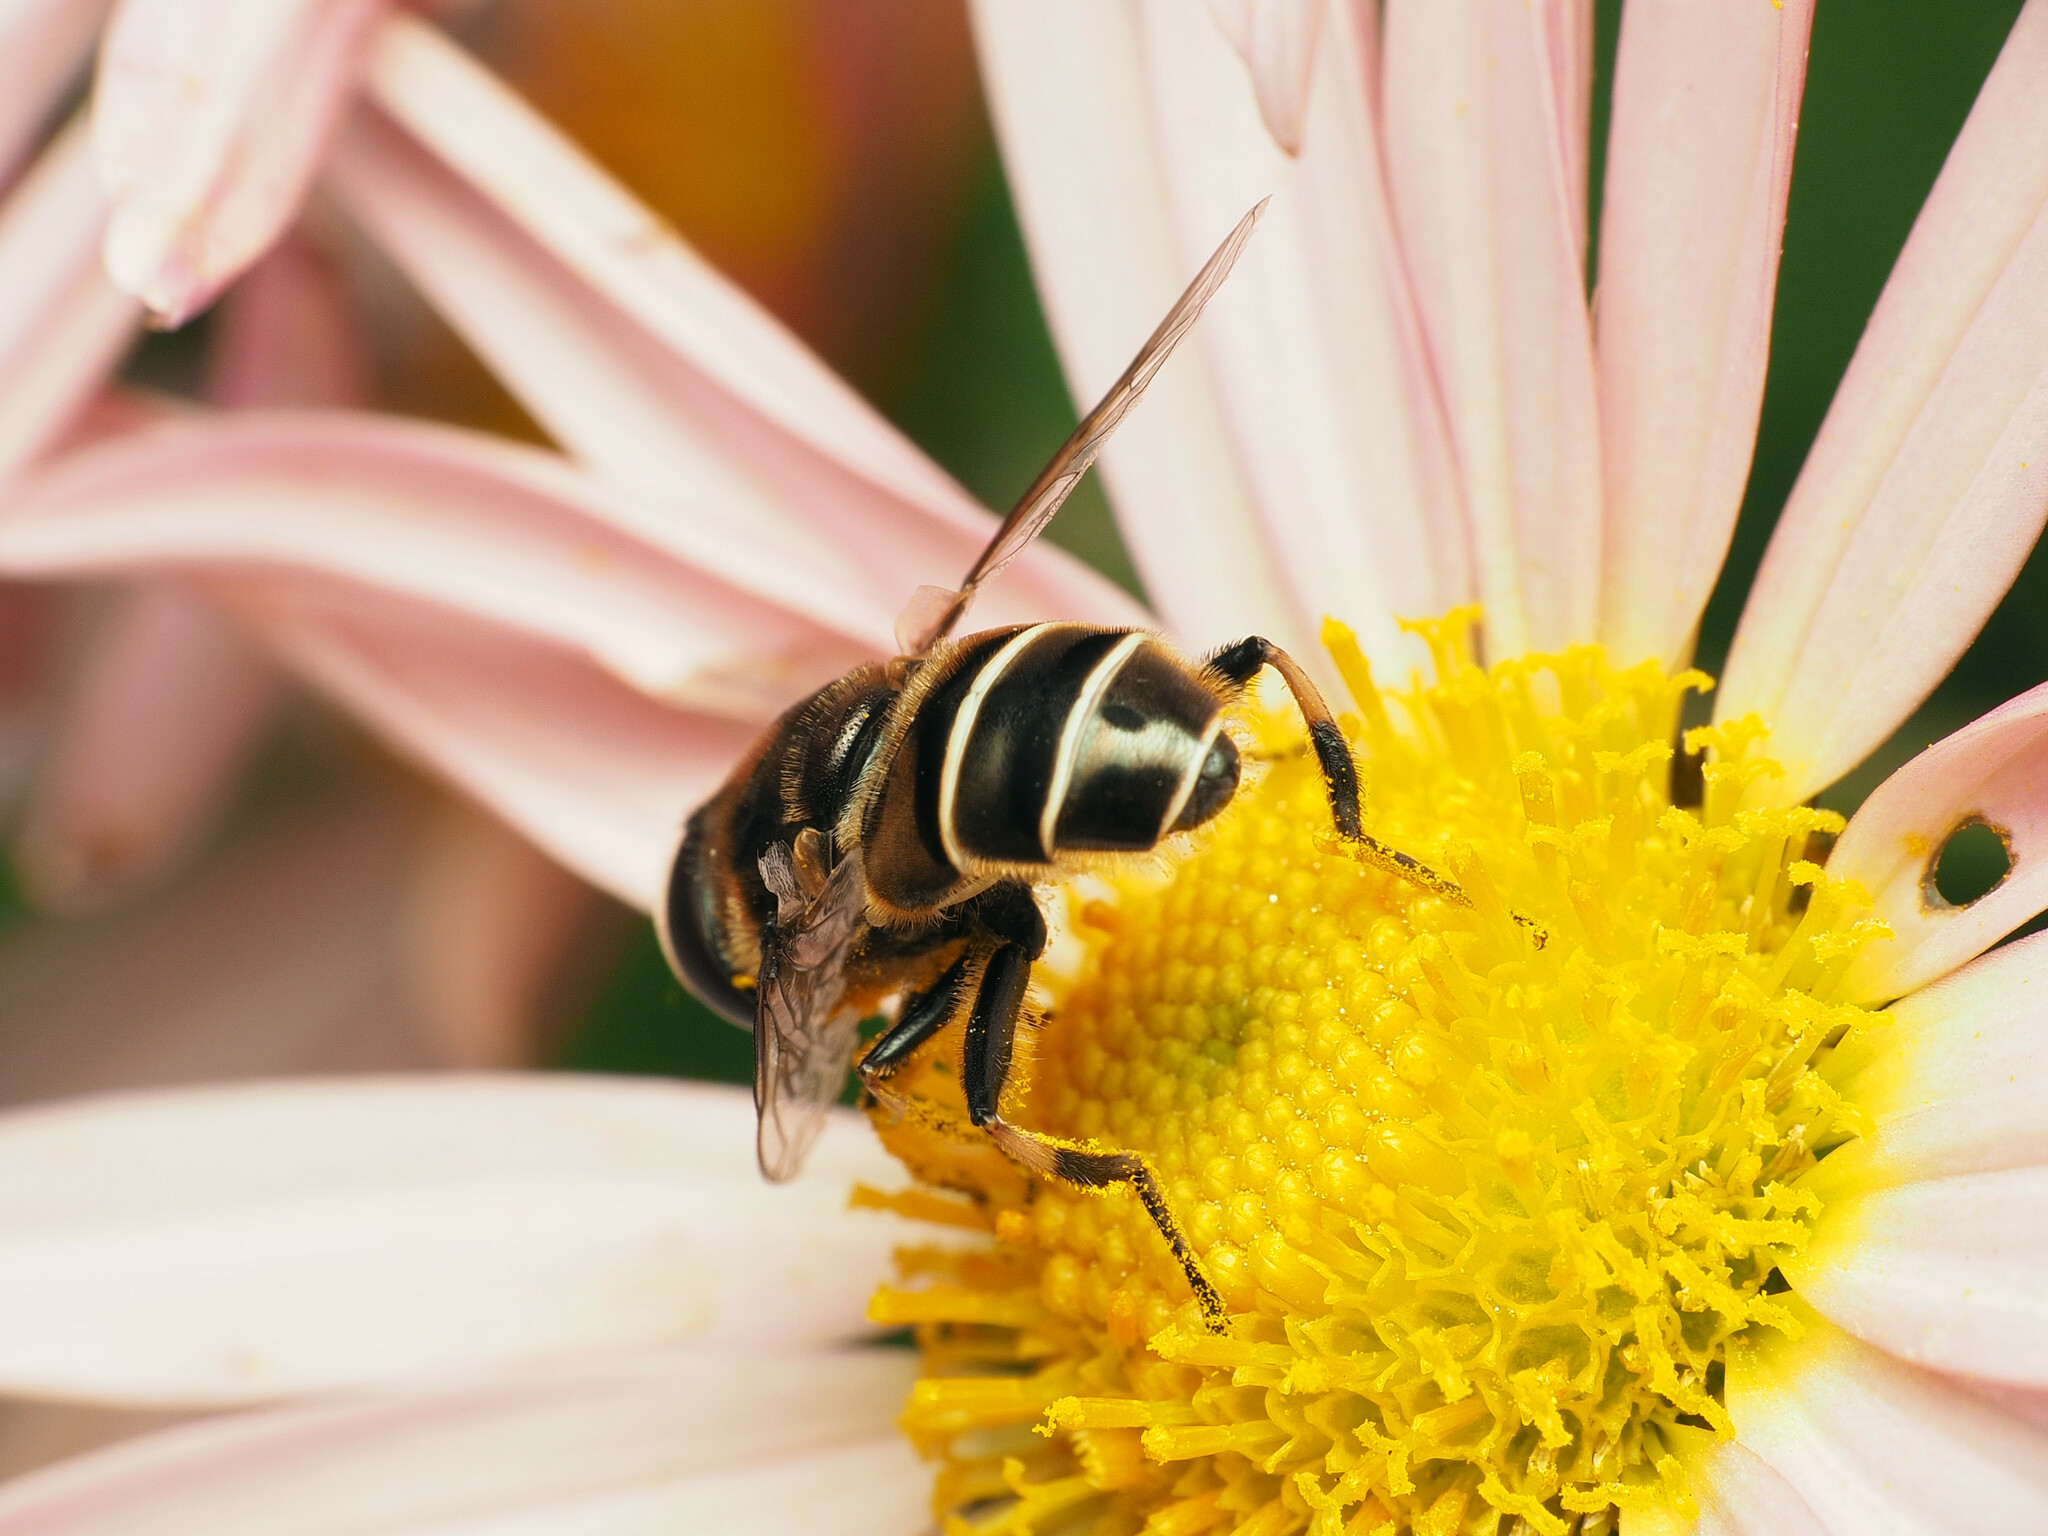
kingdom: Animalia
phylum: Arthropoda
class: Insecta
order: Diptera
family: Syrphidae
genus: Eristalis
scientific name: Eristalis dimidiata
